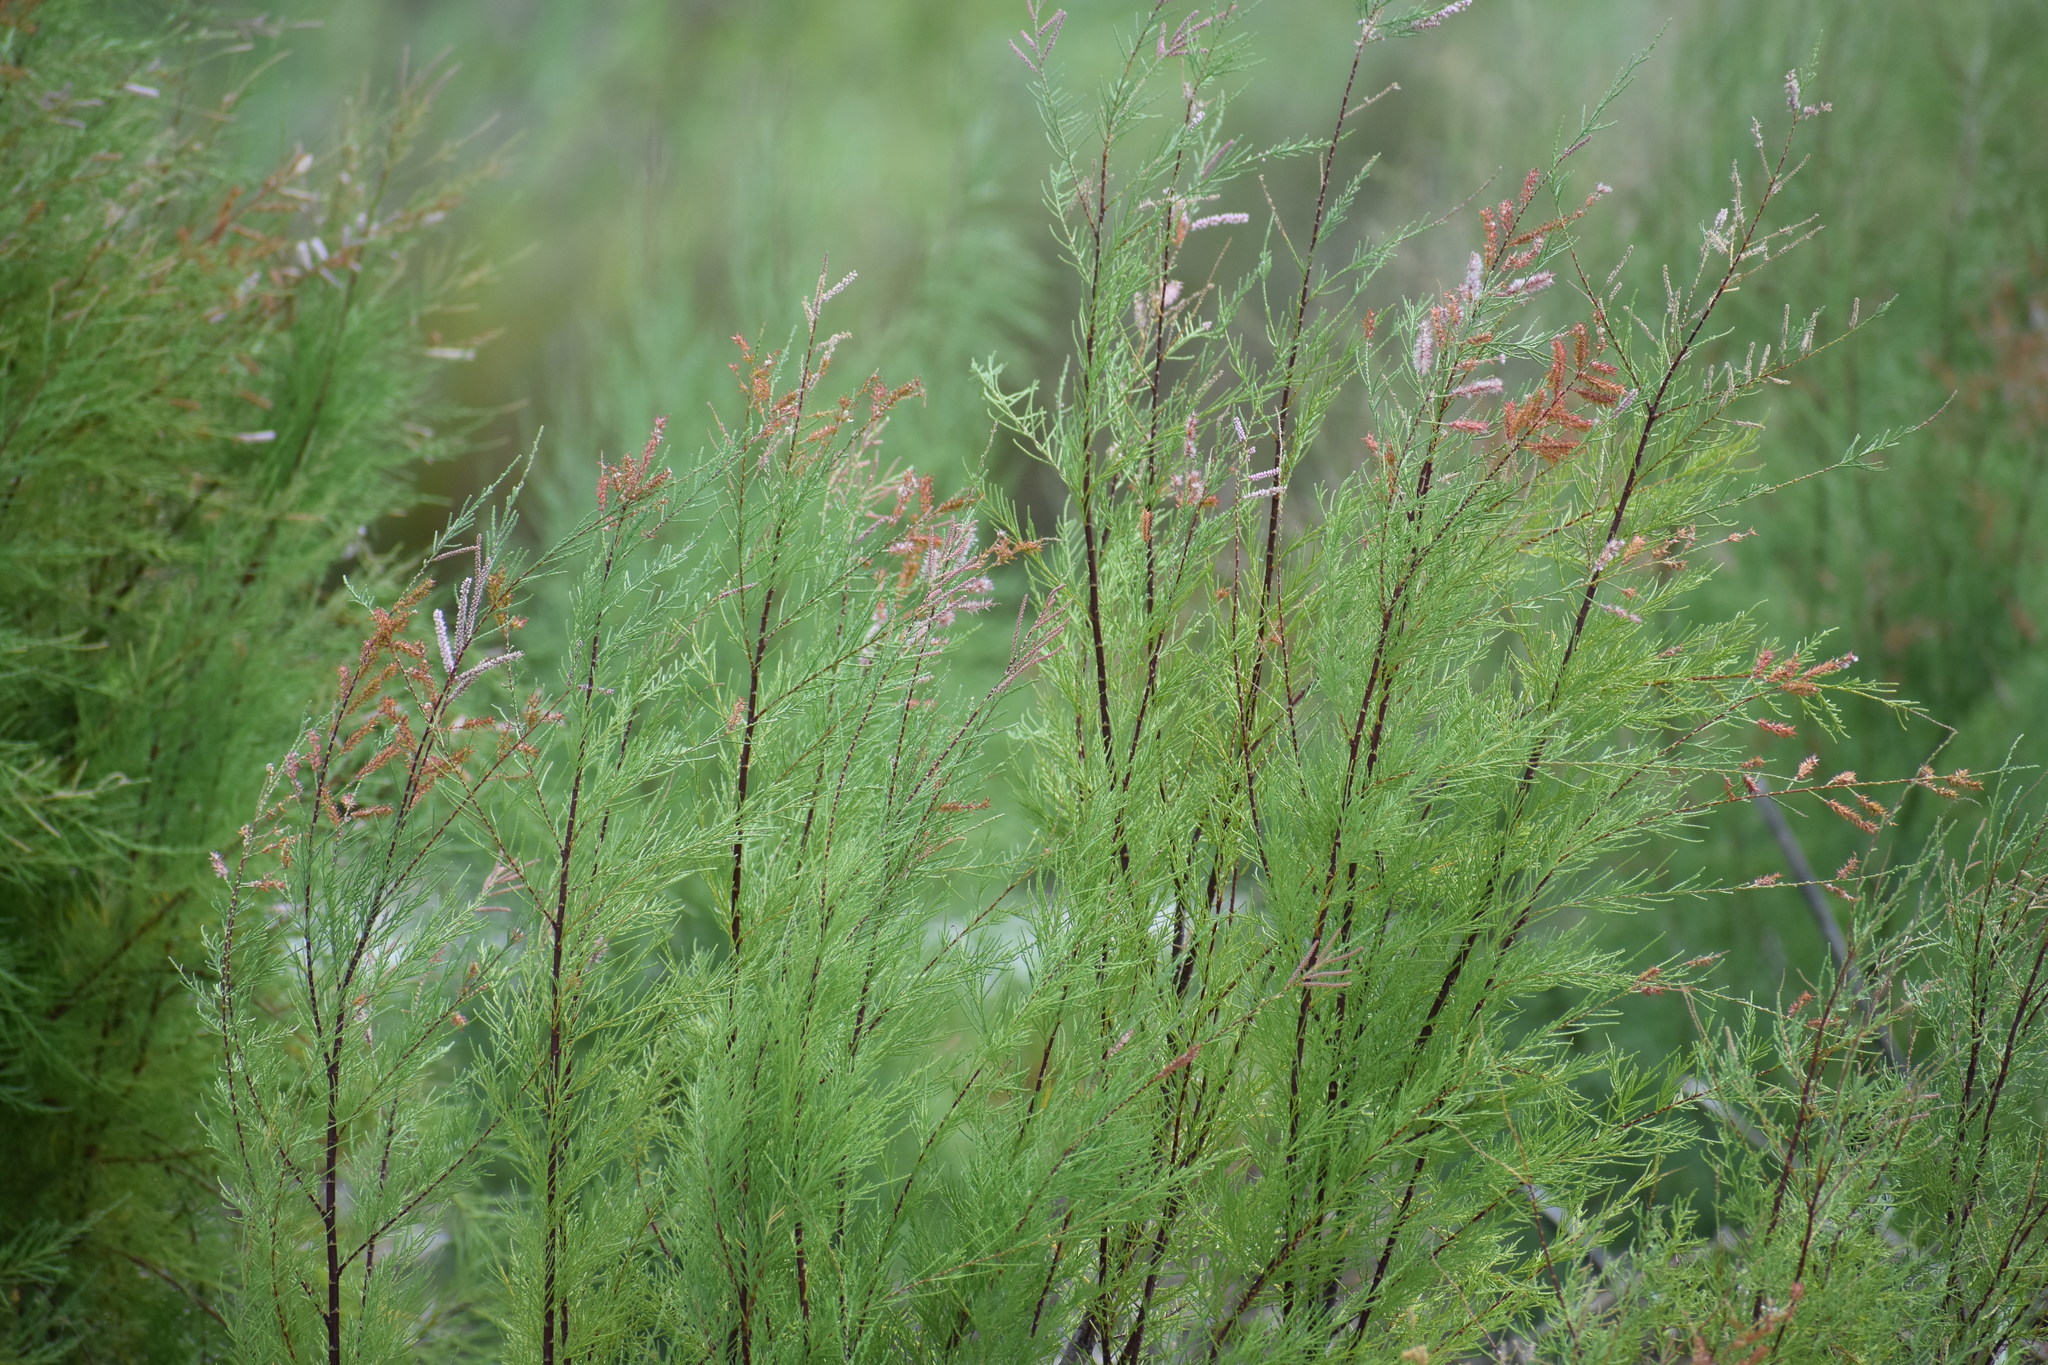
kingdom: Plantae
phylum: Tracheophyta
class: Magnoliopsida
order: Caryophyllales
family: Tamaricaceae
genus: Tamarix
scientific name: Tamarix
